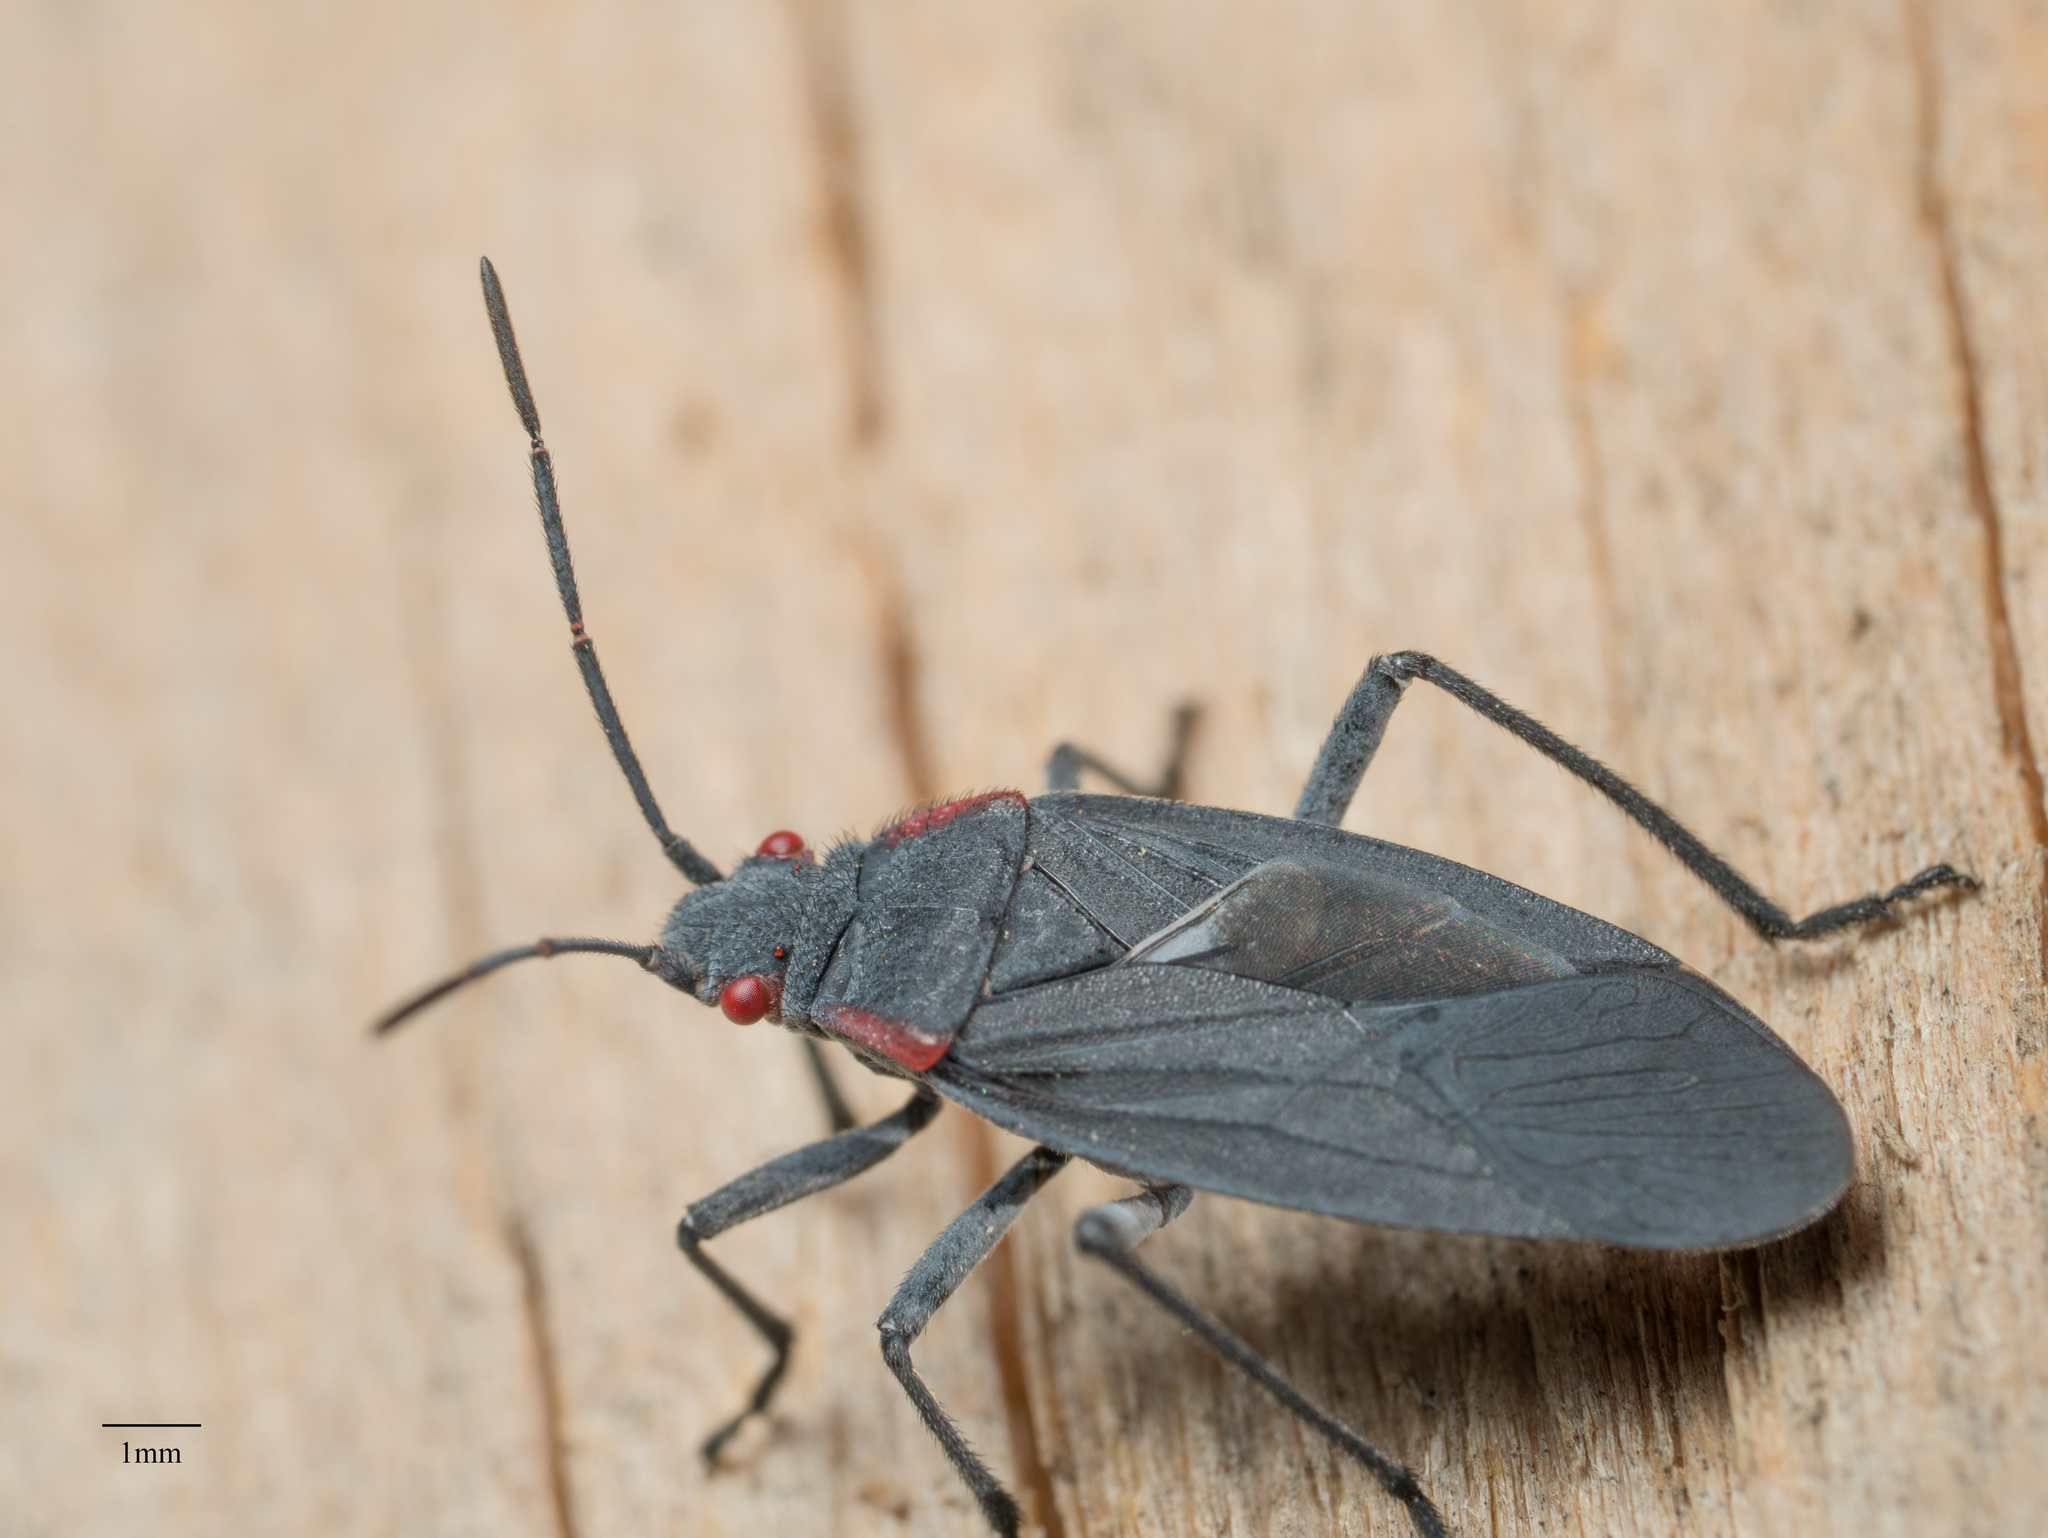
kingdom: Animalia
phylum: Arthropoda
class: Insecta
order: Hemiptera
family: Rhopalidae
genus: Jadera
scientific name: Jadera haematoloma
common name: Red-shouldered bug
